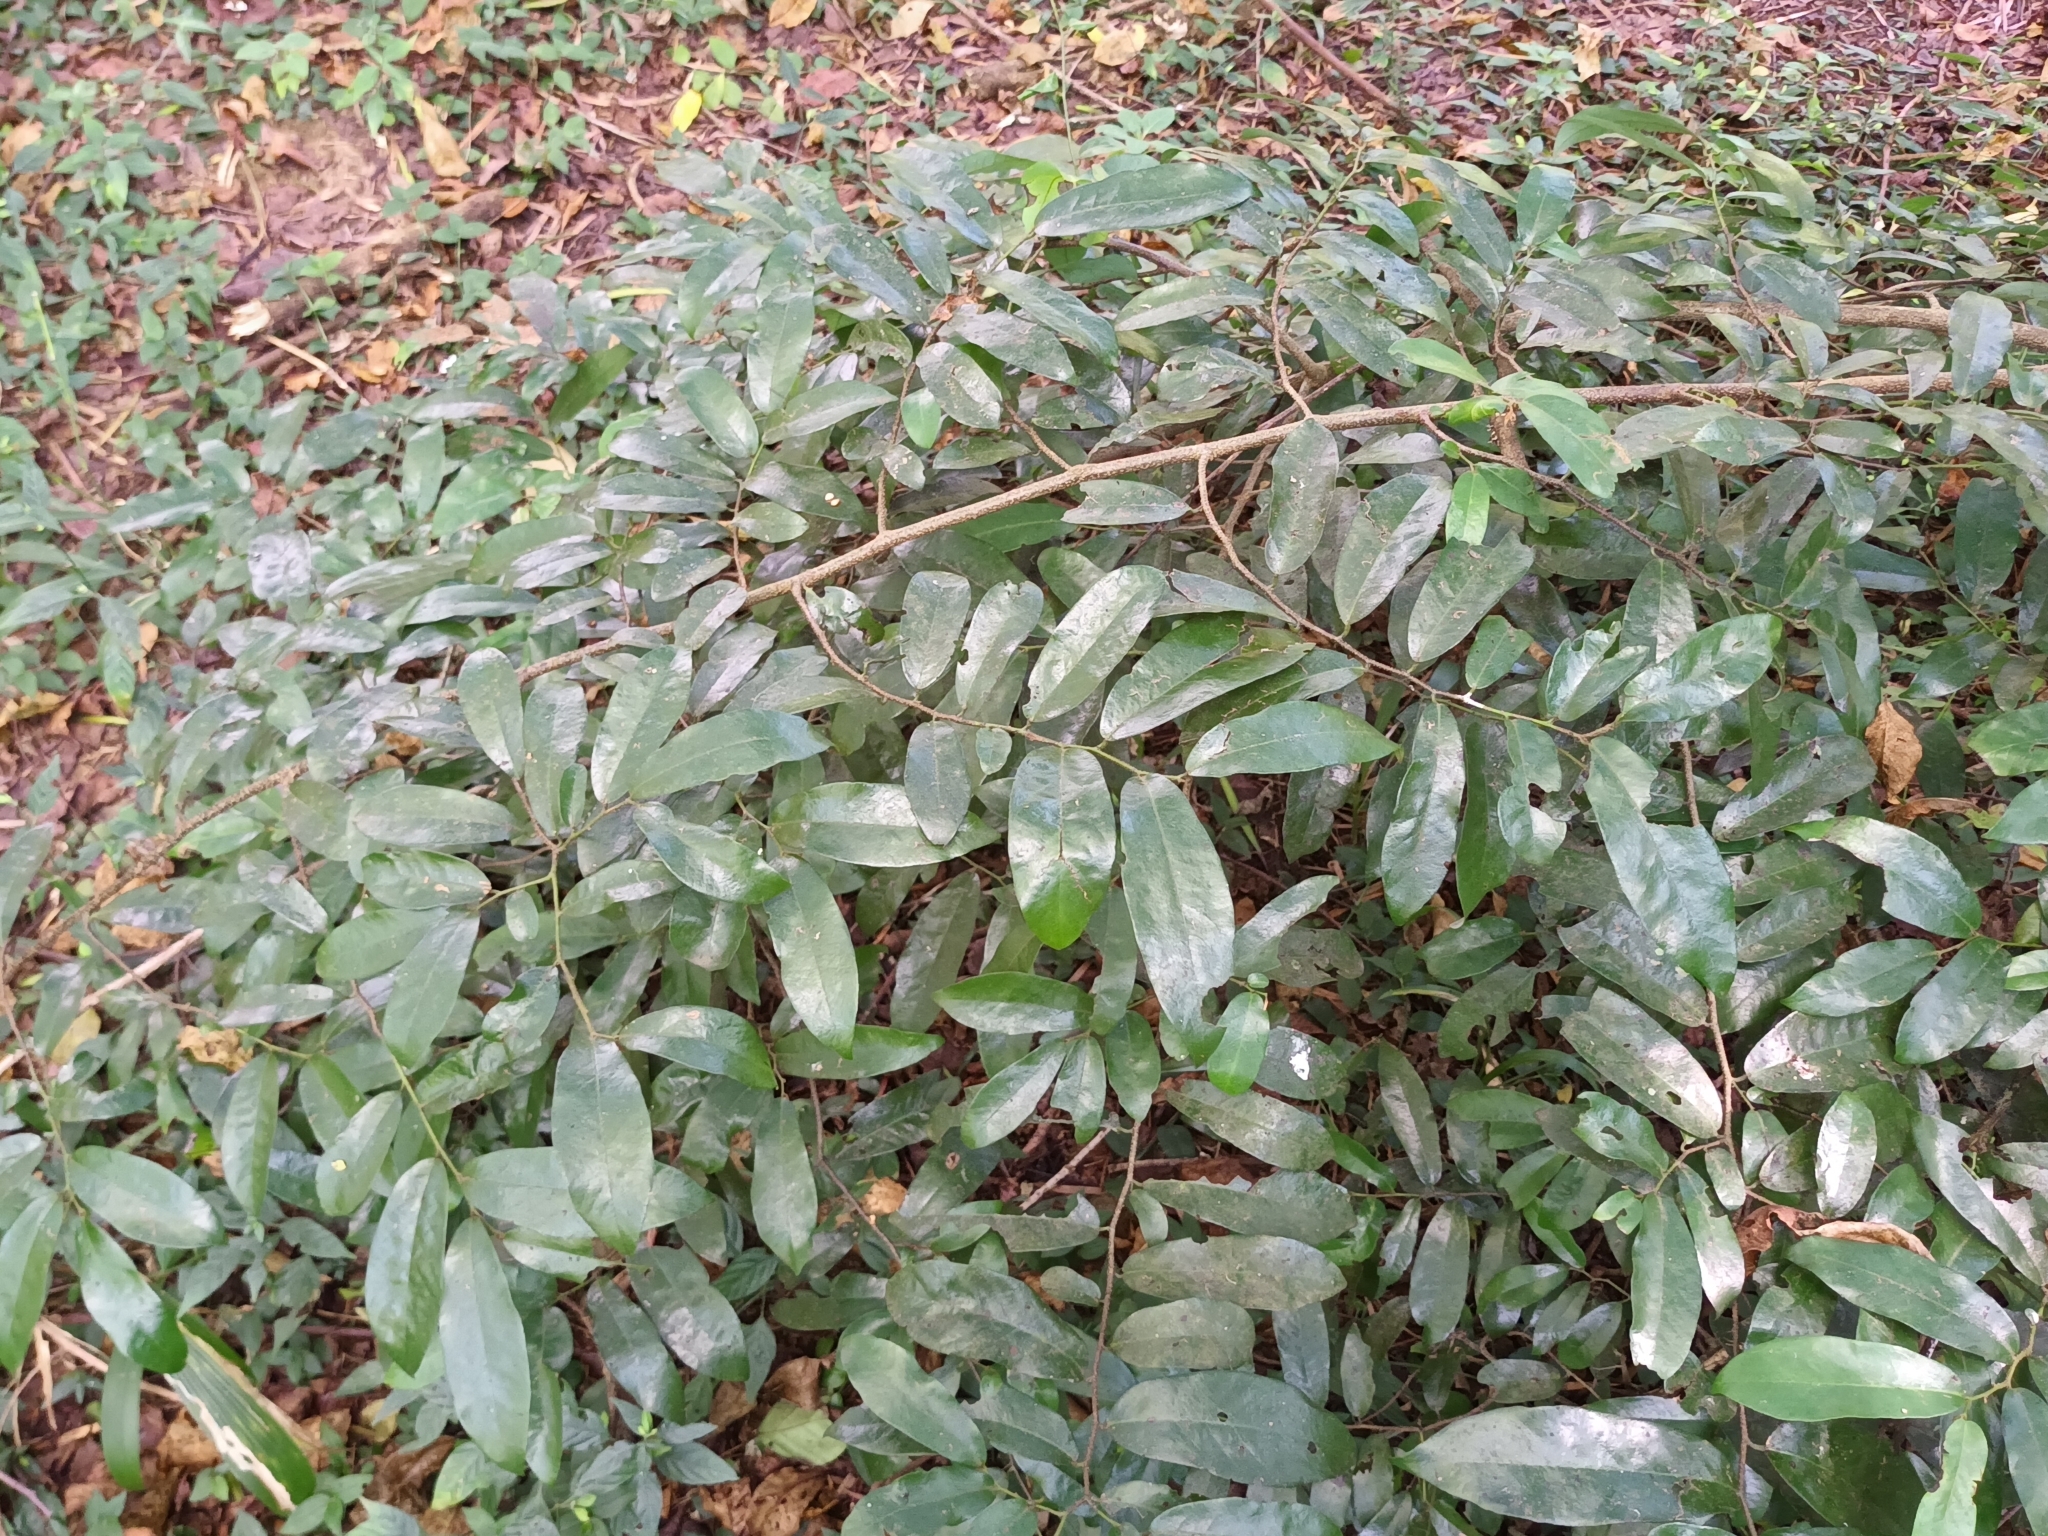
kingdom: Plantae
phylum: Tracheophyta
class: Magnoliopsida
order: Magnoliales
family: Annonaceae
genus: Monanthotaxis
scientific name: Monanthotaxis caffra
